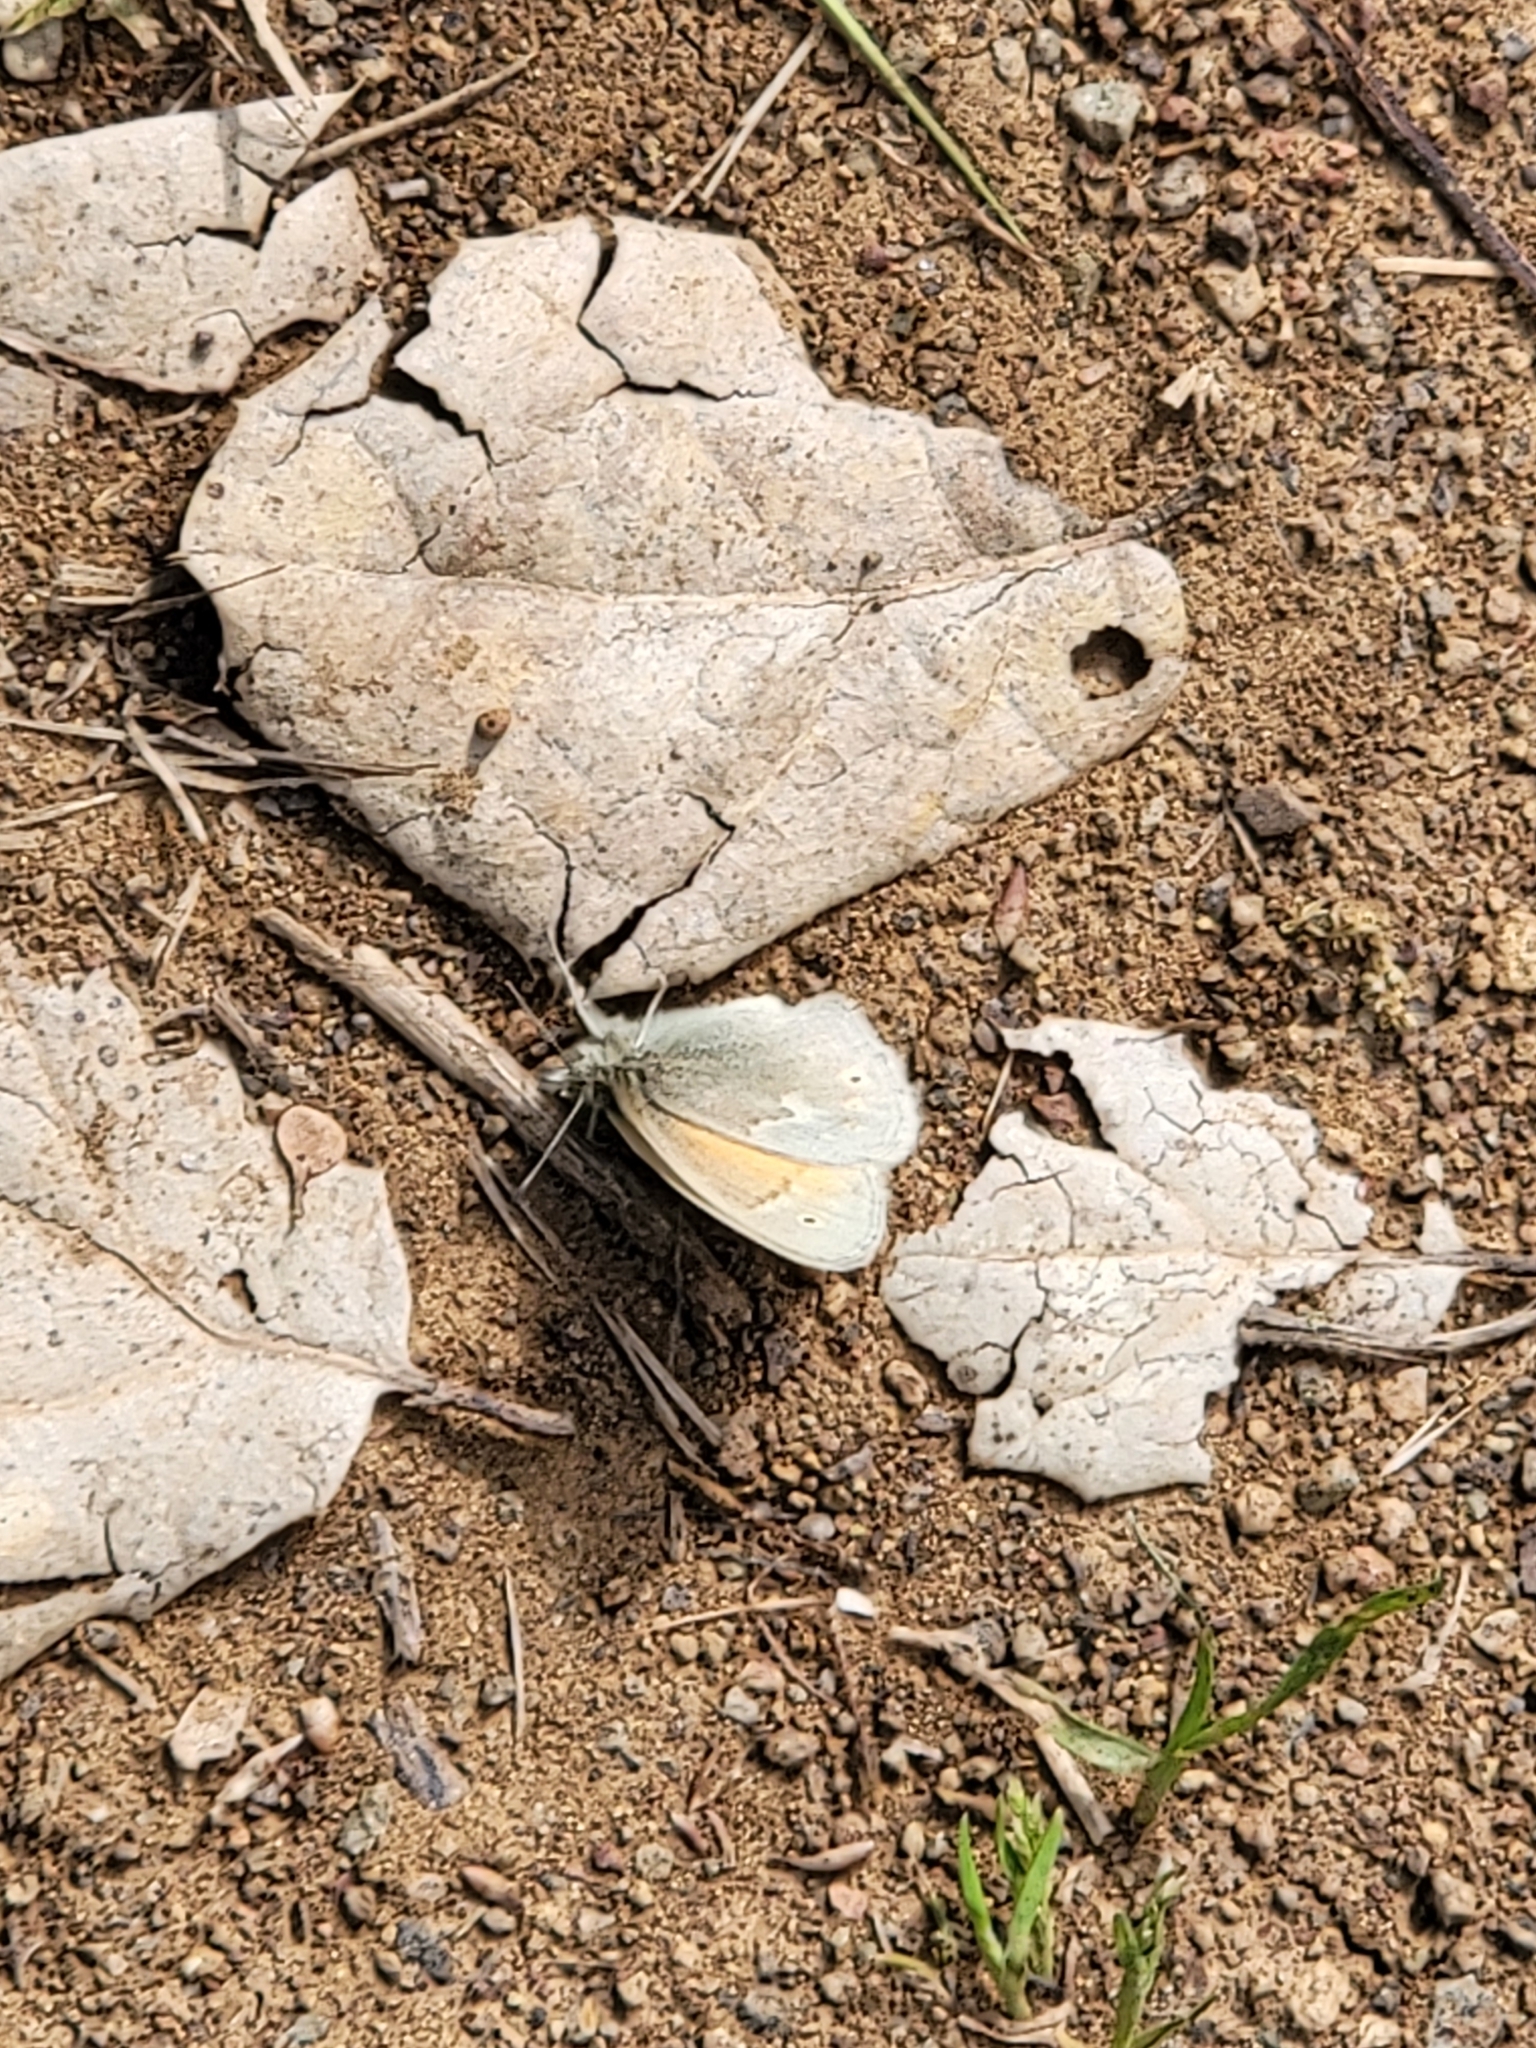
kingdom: Animalia
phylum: Arthropoda
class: Insecta
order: Lepidoptera
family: Nymphalidae
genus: Coenonympha
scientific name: Coenonympha california
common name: Common ringlet
